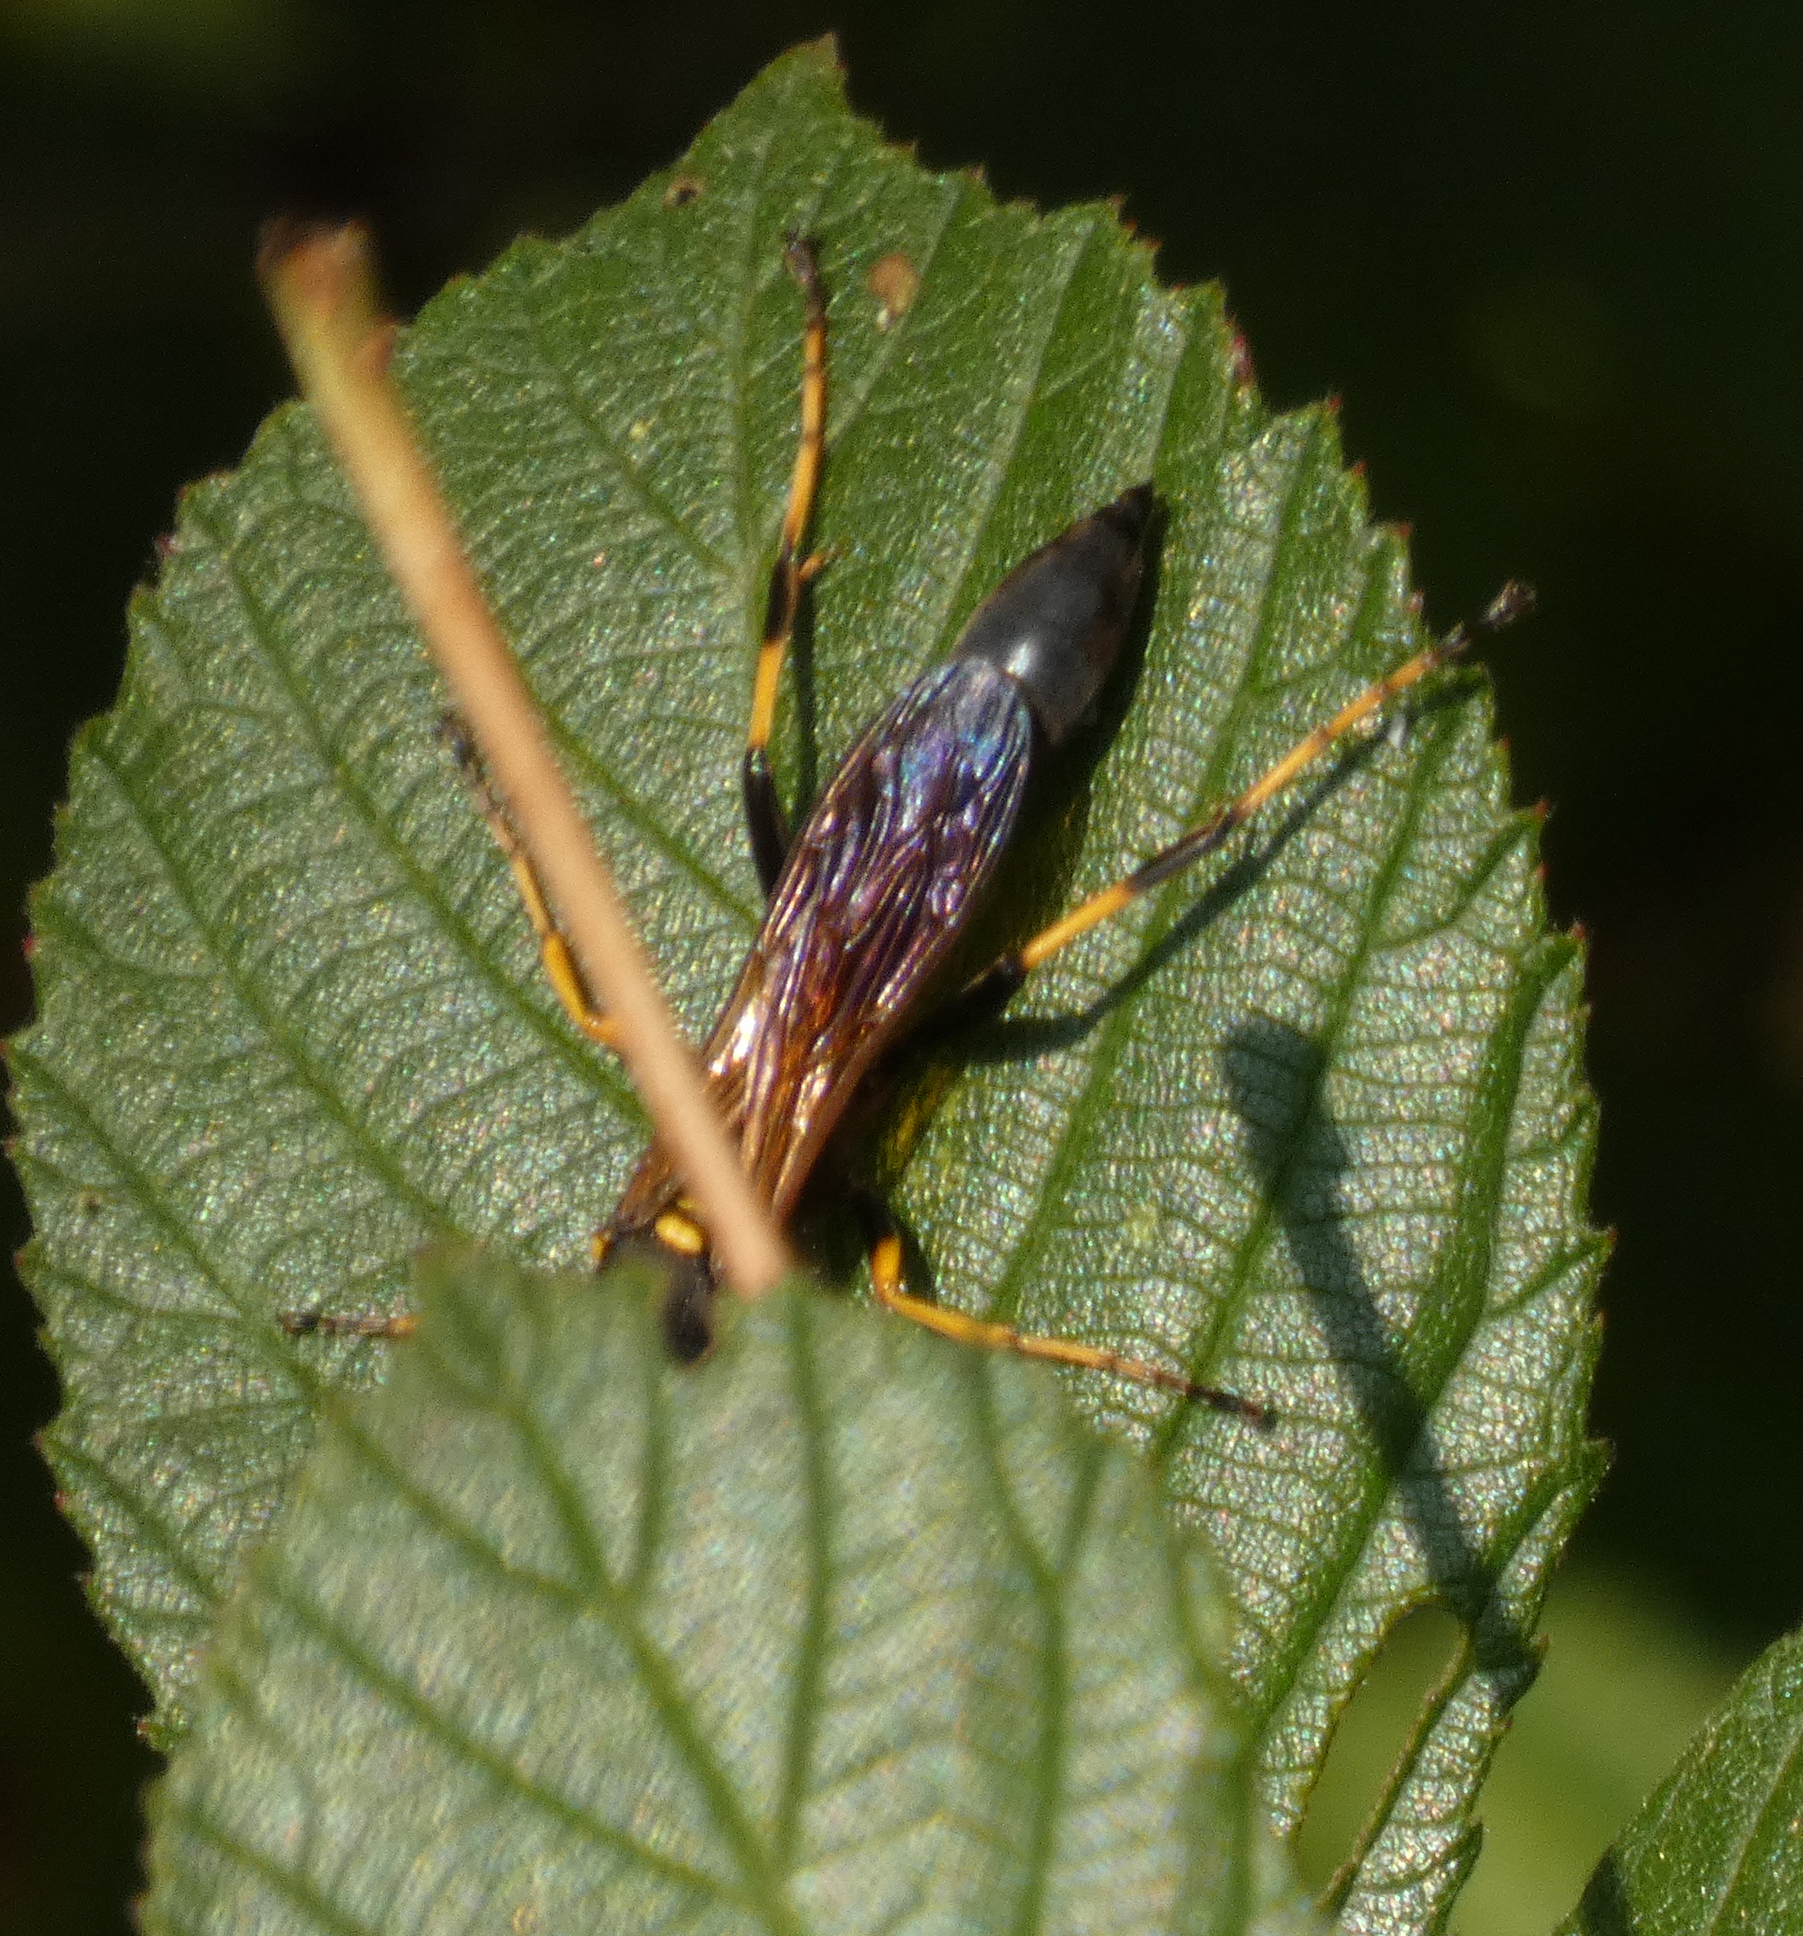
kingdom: Animalia
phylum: Arthropoda
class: Insecta
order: Hymenoptera
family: Sphecidae
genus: Sceliphron
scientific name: Sceliphron caementarium
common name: Mud dauber
